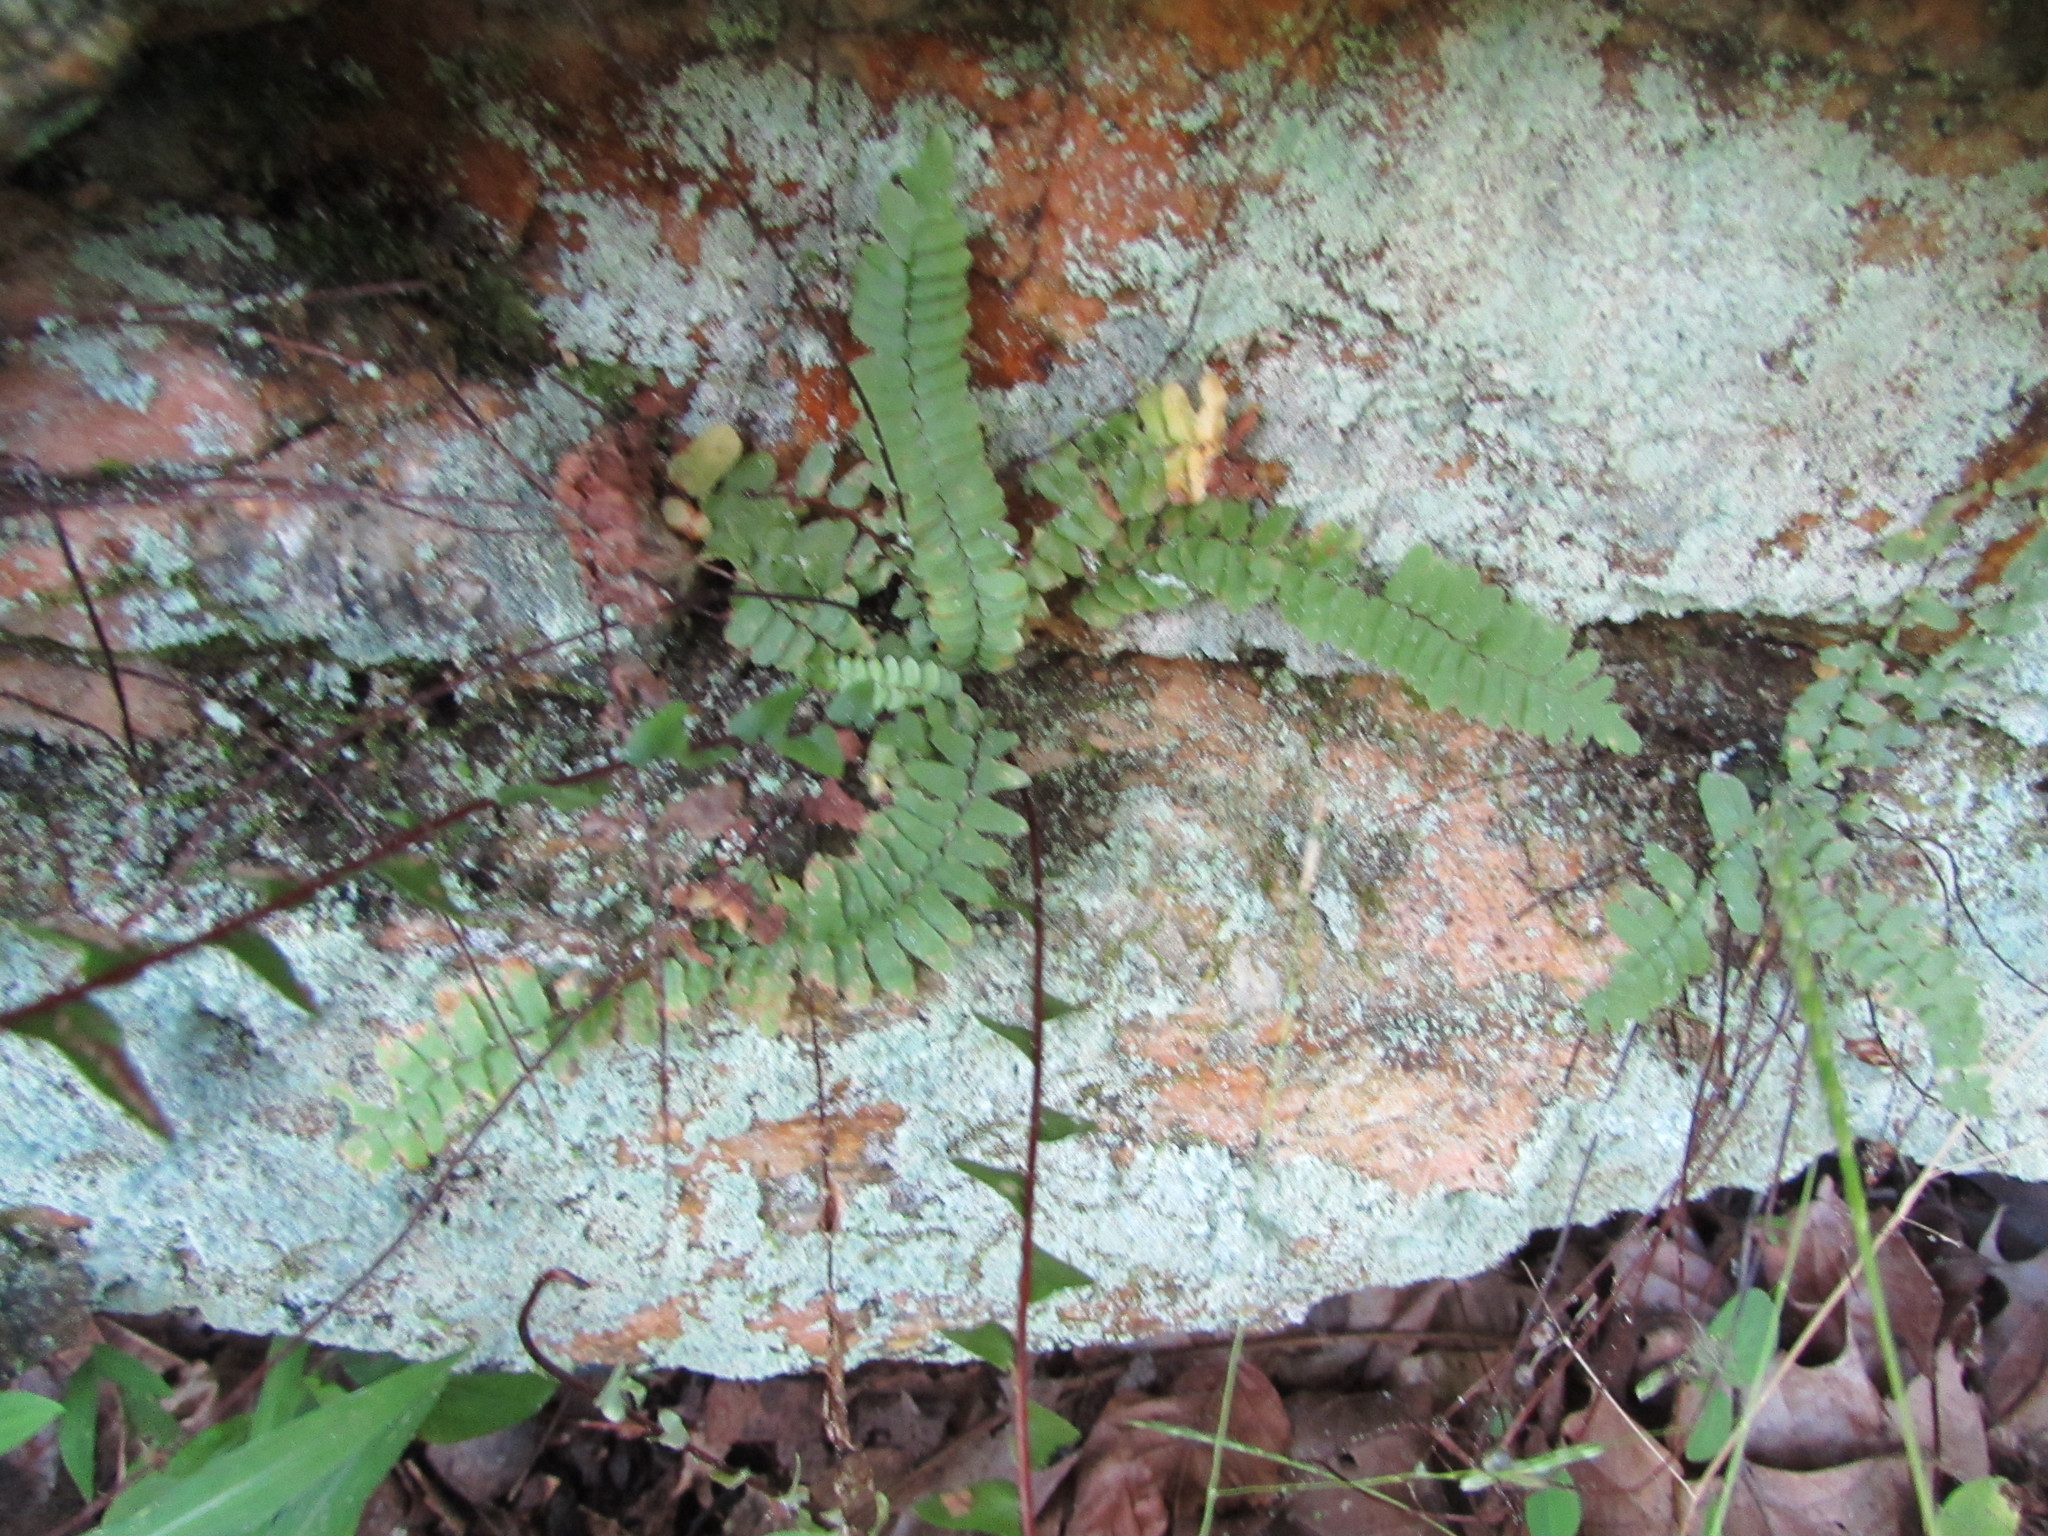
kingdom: Plantae
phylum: Tracheophyta
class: Polypodiopsida
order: Polypodiales
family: Aspleniaceae
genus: Asplenium
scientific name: Asplenium platyneuron
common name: Ebony spleenwort
